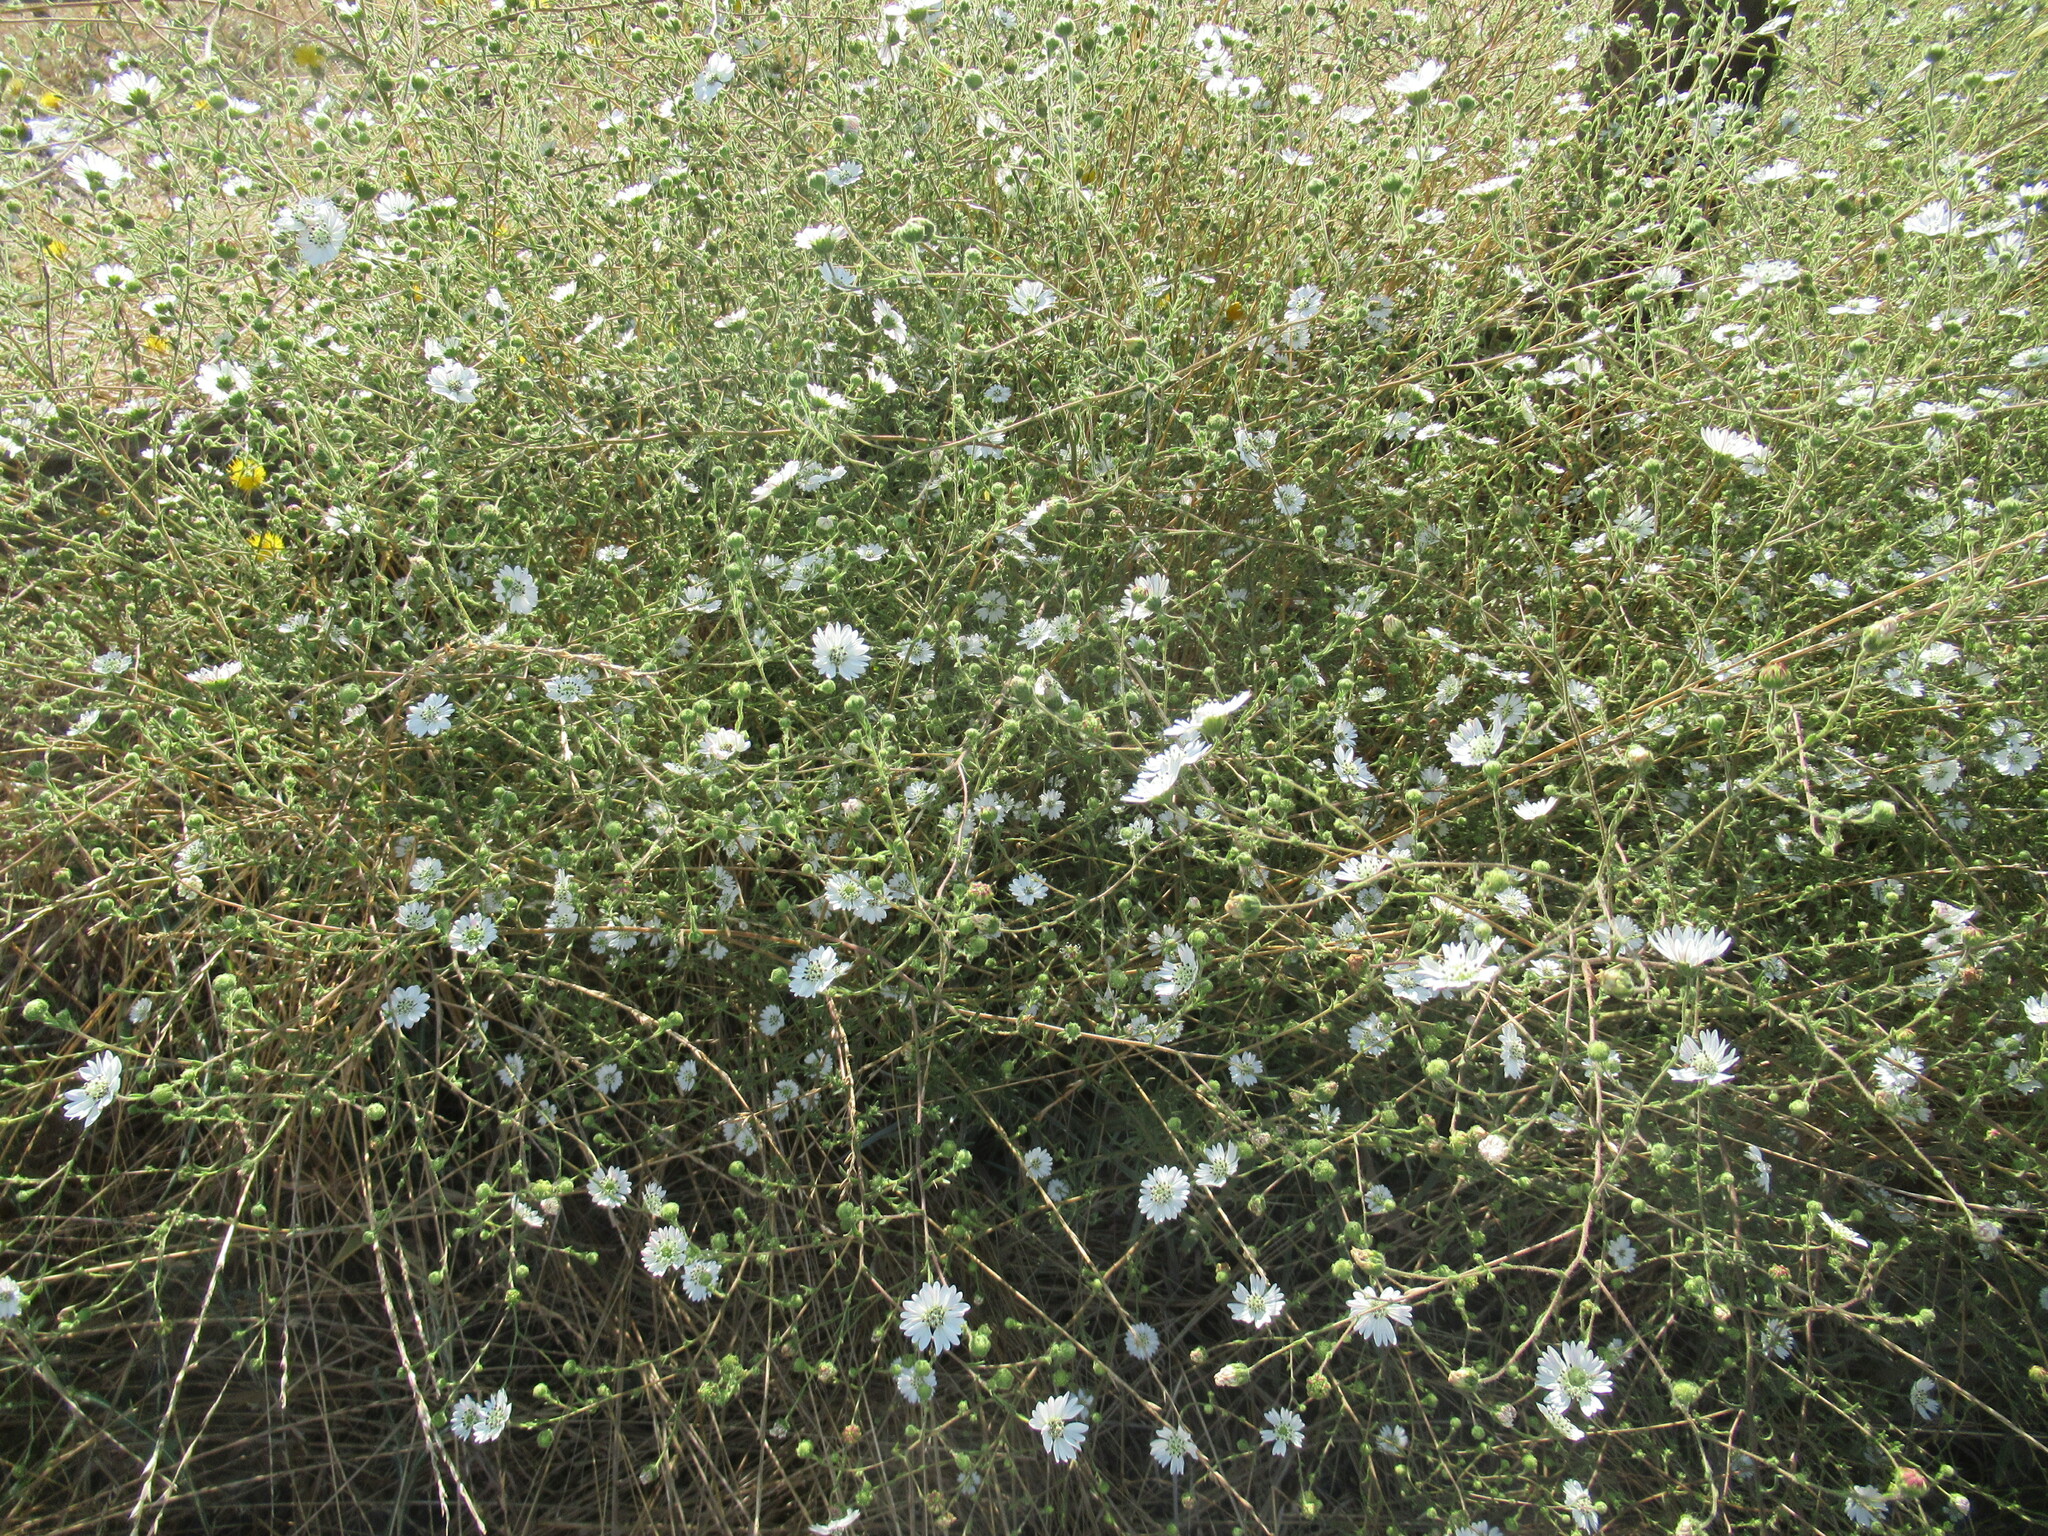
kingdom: Plantae
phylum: Tracheophyta
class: Magnoliopsida
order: Asterales
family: Asteraceae
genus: Hemizonia
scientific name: Hemizonia congesta
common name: Hayfield tarweed
